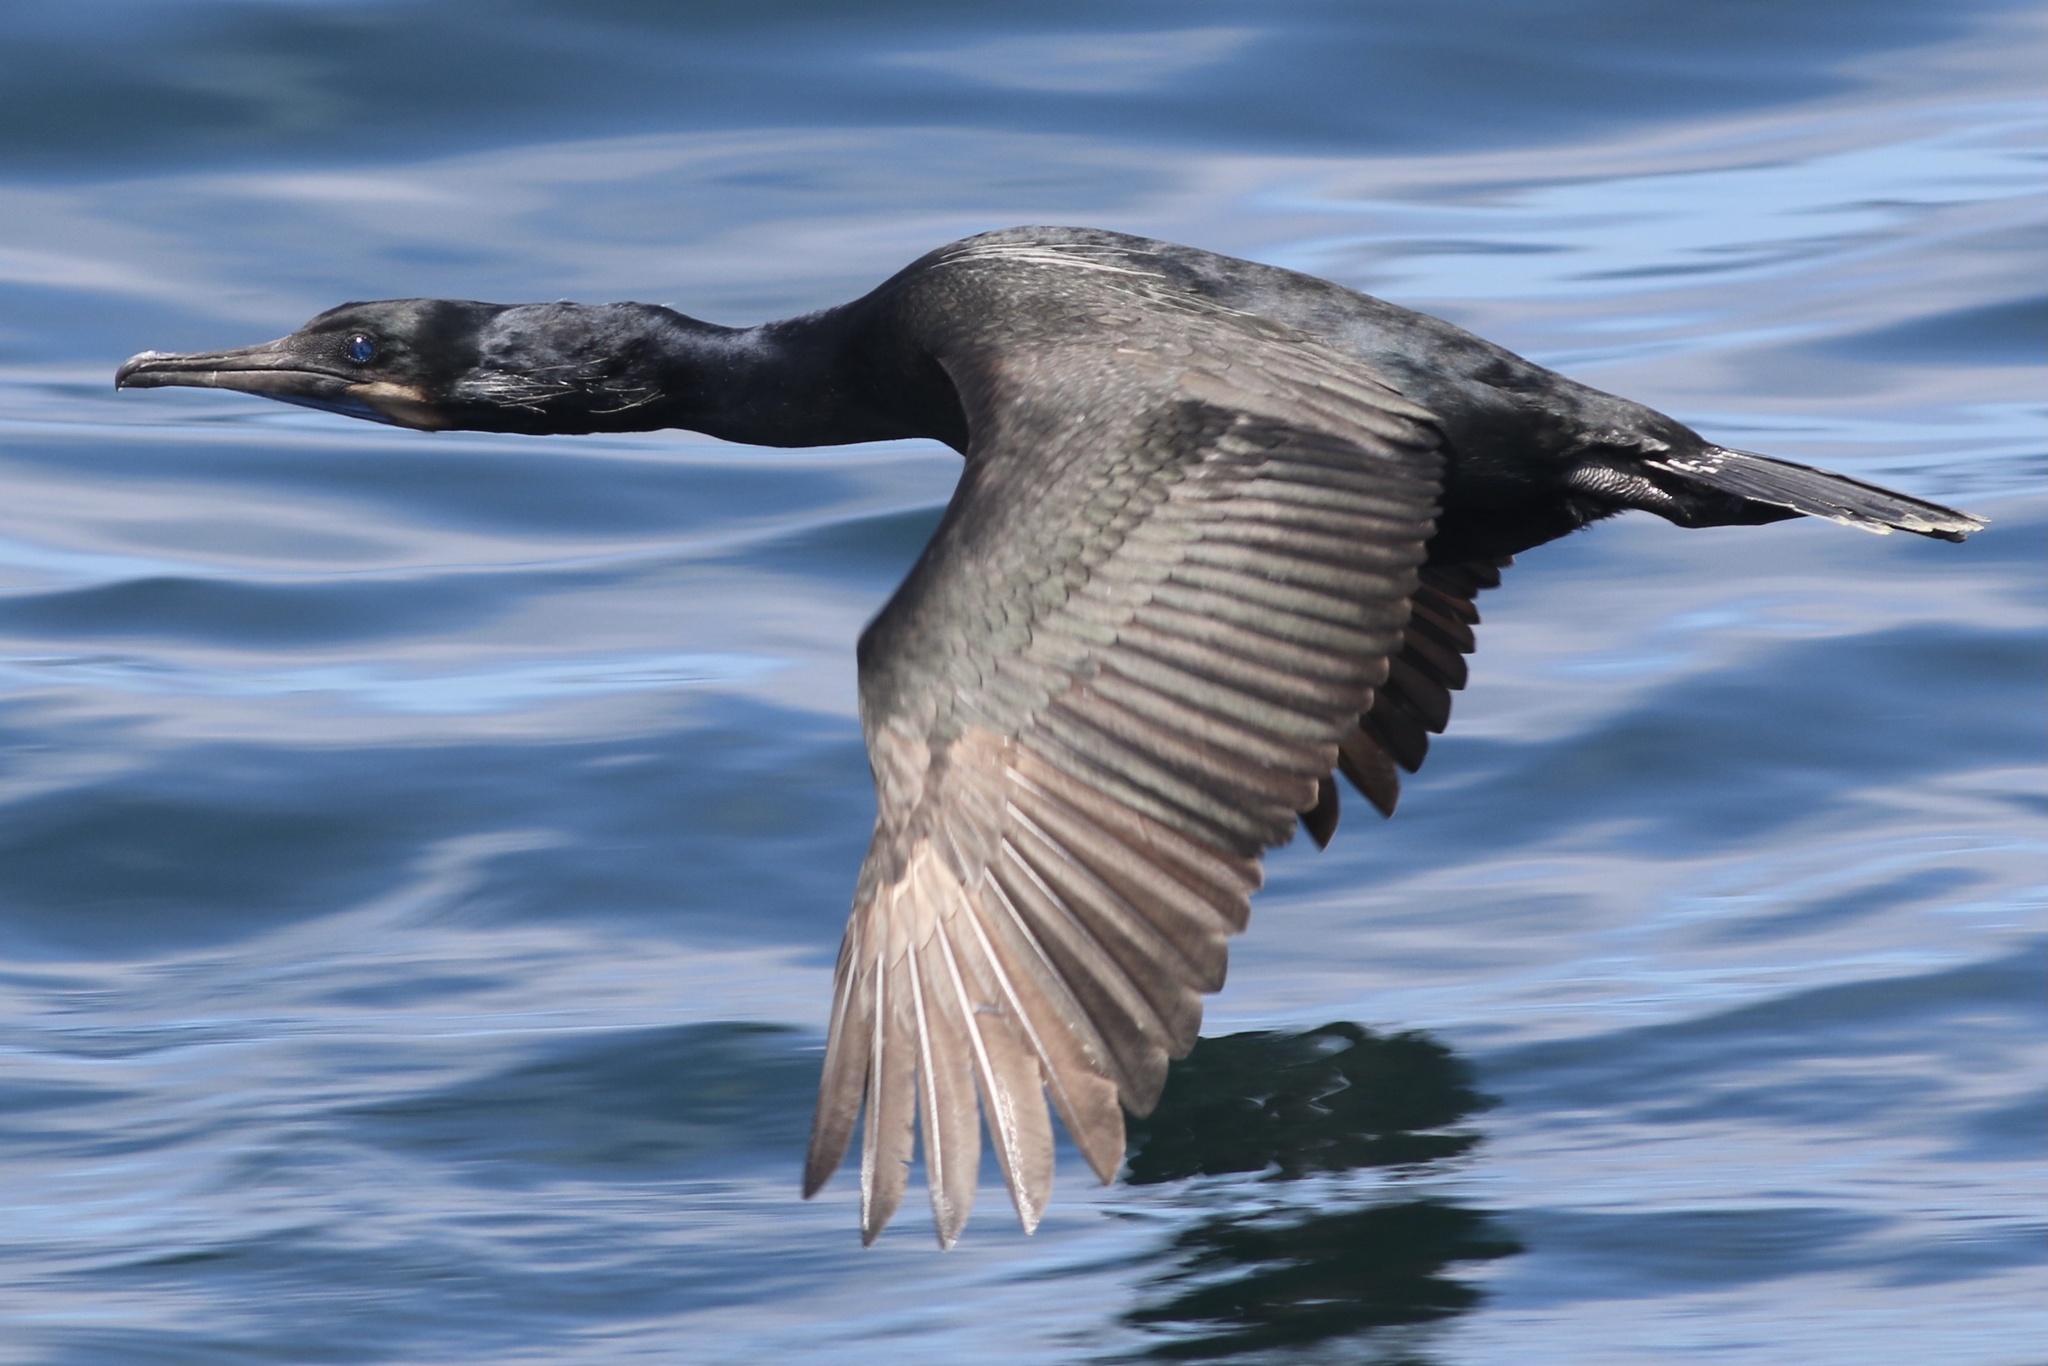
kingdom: Animalia
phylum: Chordata
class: Aves
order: Suliformes
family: Phalacrocoracidae
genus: Urile
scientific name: Urile penicillatus
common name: Brandt's cormorant
